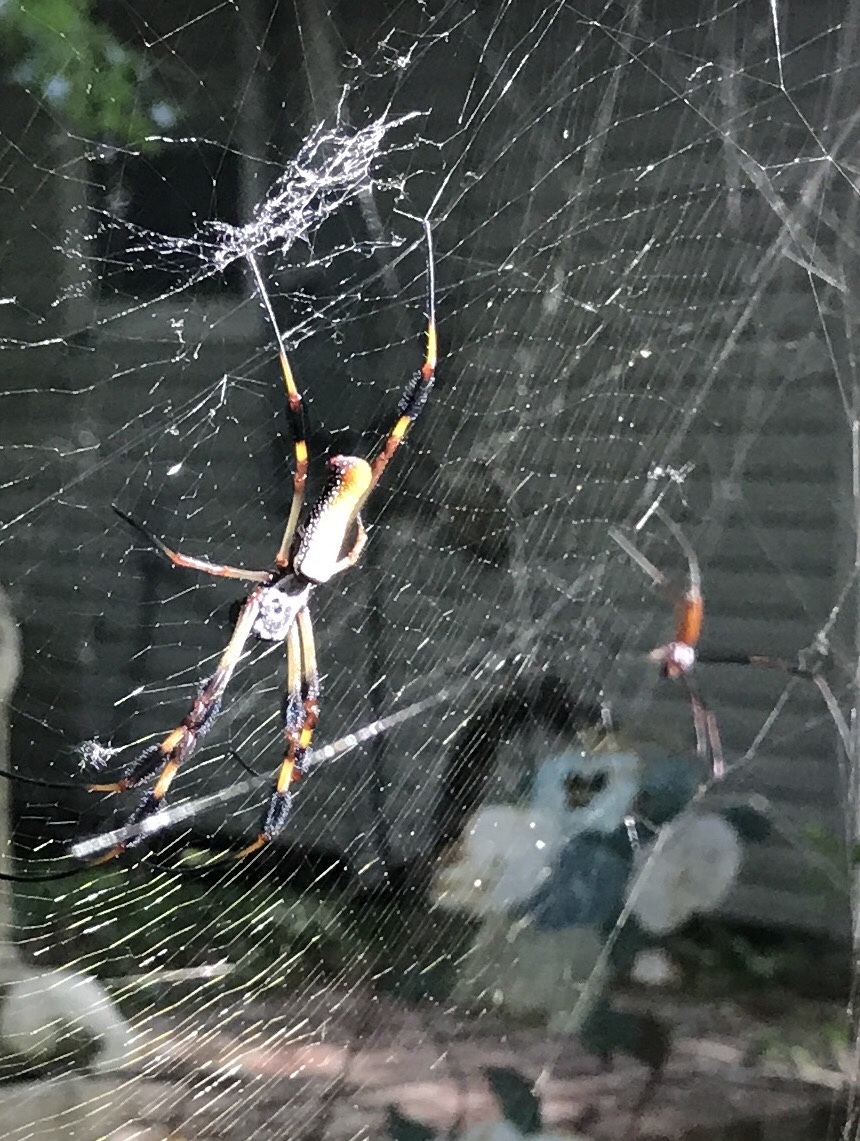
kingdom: Animalia
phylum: Arthropoda
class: Arachnida
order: Araneae
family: Araneidae
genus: Trichonephila
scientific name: Trichonephila clavipes
